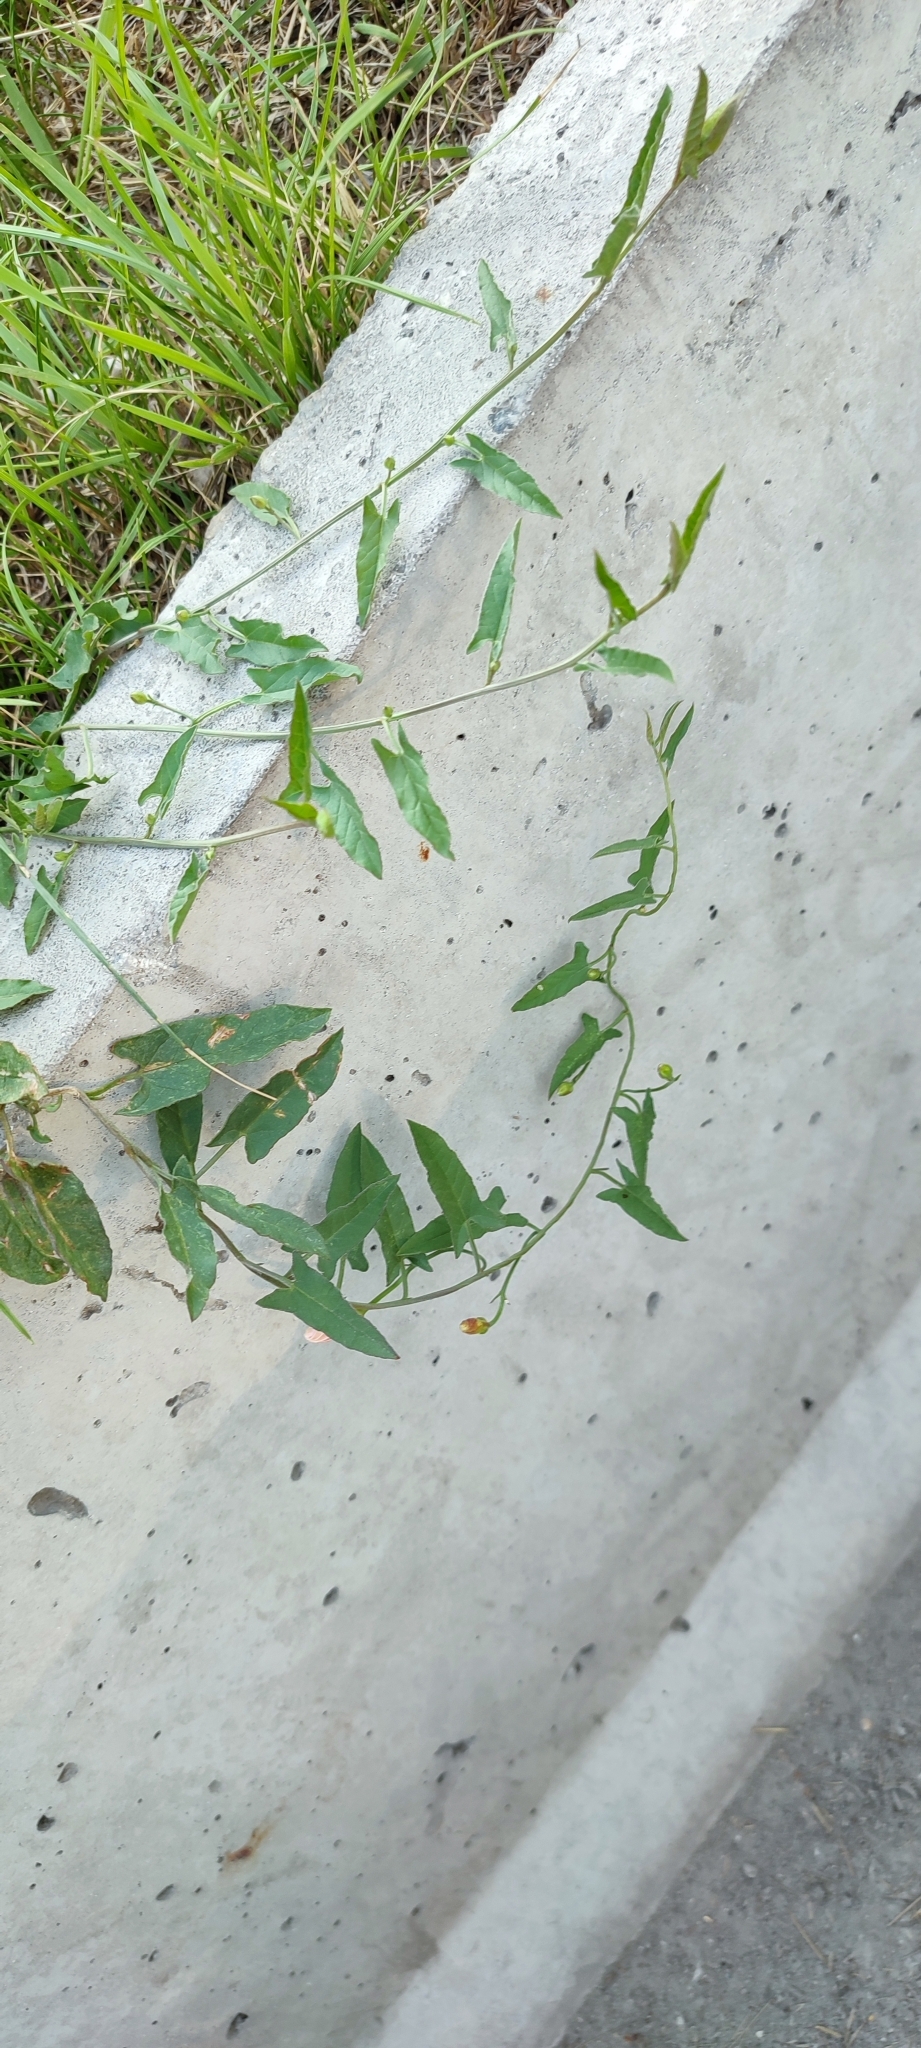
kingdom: Plantae
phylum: Tracheophyta
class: Magnoliopsida
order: Solanales
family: Convolvulaceae
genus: Convolvulus
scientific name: Convolvulus arvensis
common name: Field bindweed
